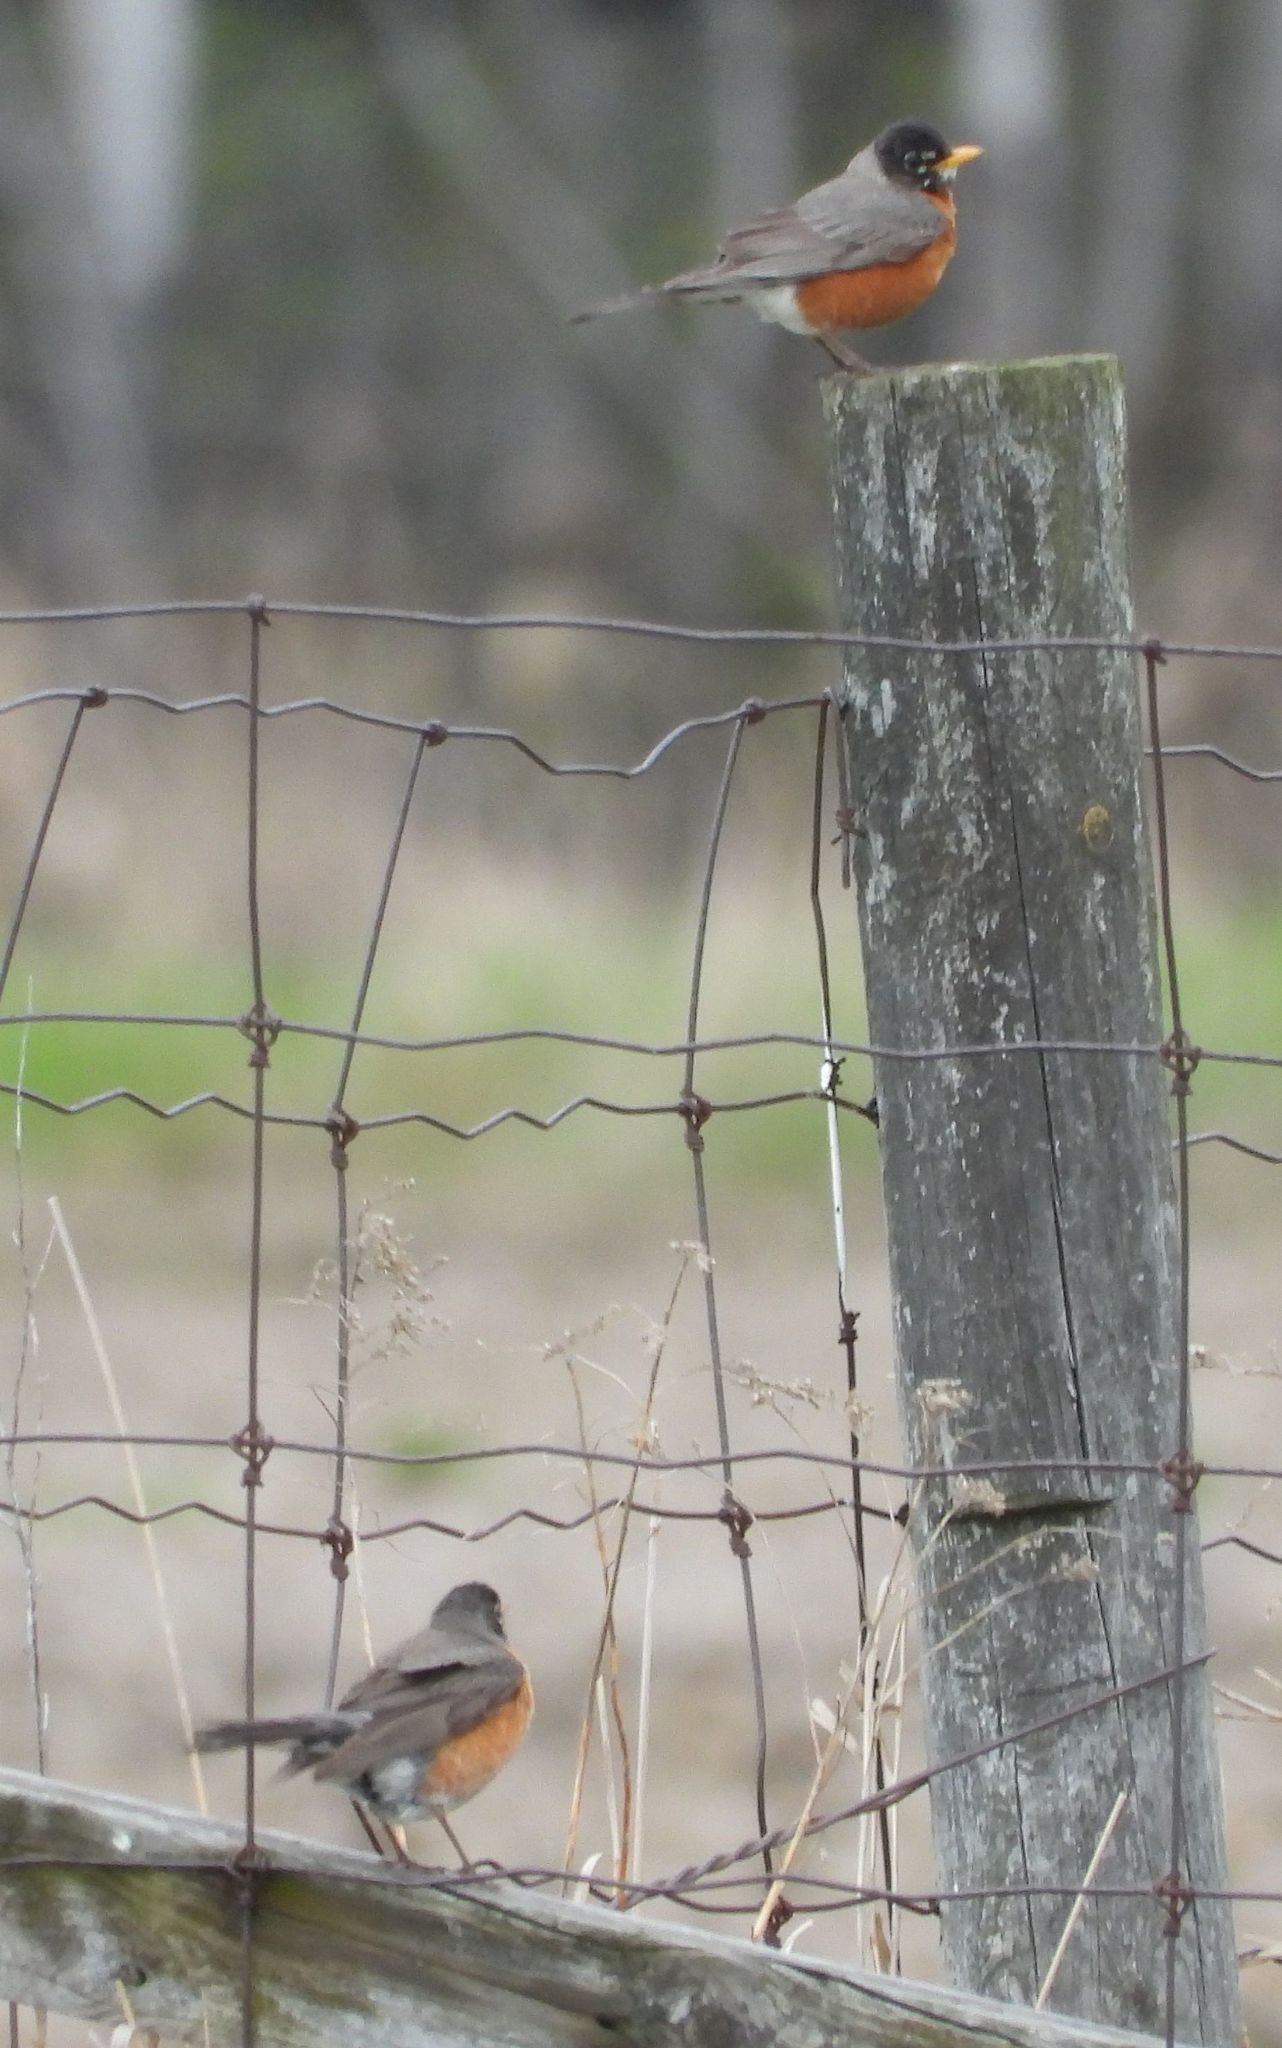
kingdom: Animalia
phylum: Chordata
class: Aves
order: Passeriformes
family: Turdidae
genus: Turdus
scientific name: Turdus migratorius
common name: American robin
